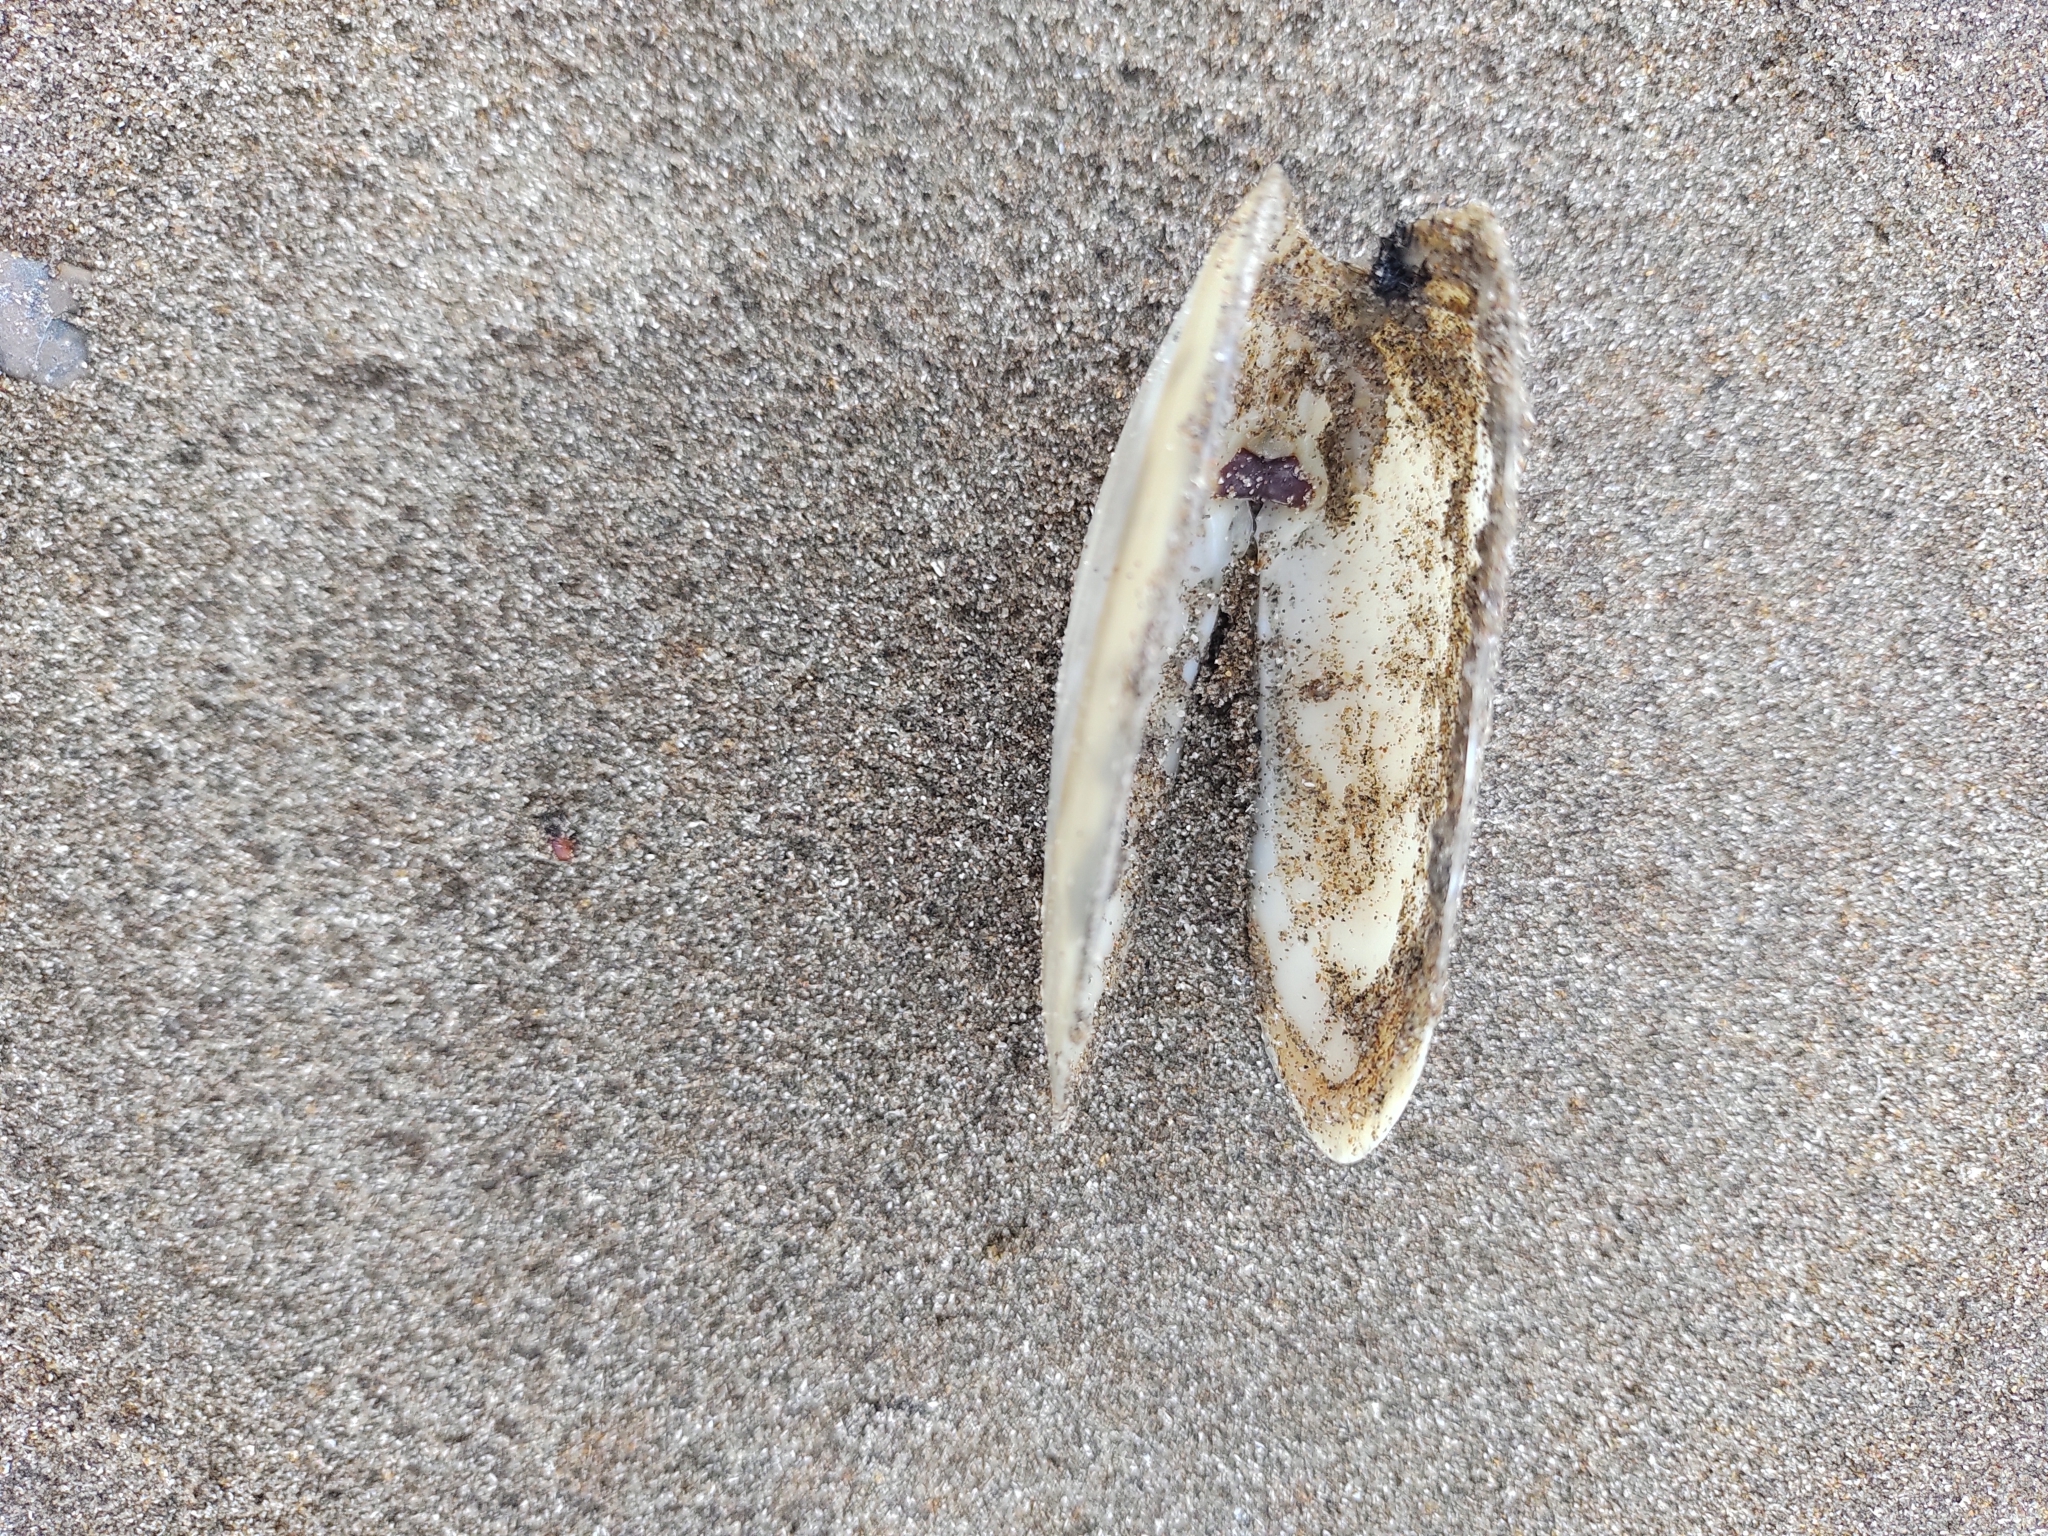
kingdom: Animalia
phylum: Mollusca
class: Bivalvia
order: Venerida
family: Mesodesmatidae
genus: Amarilladesma
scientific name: Amarilladesma mactroides
